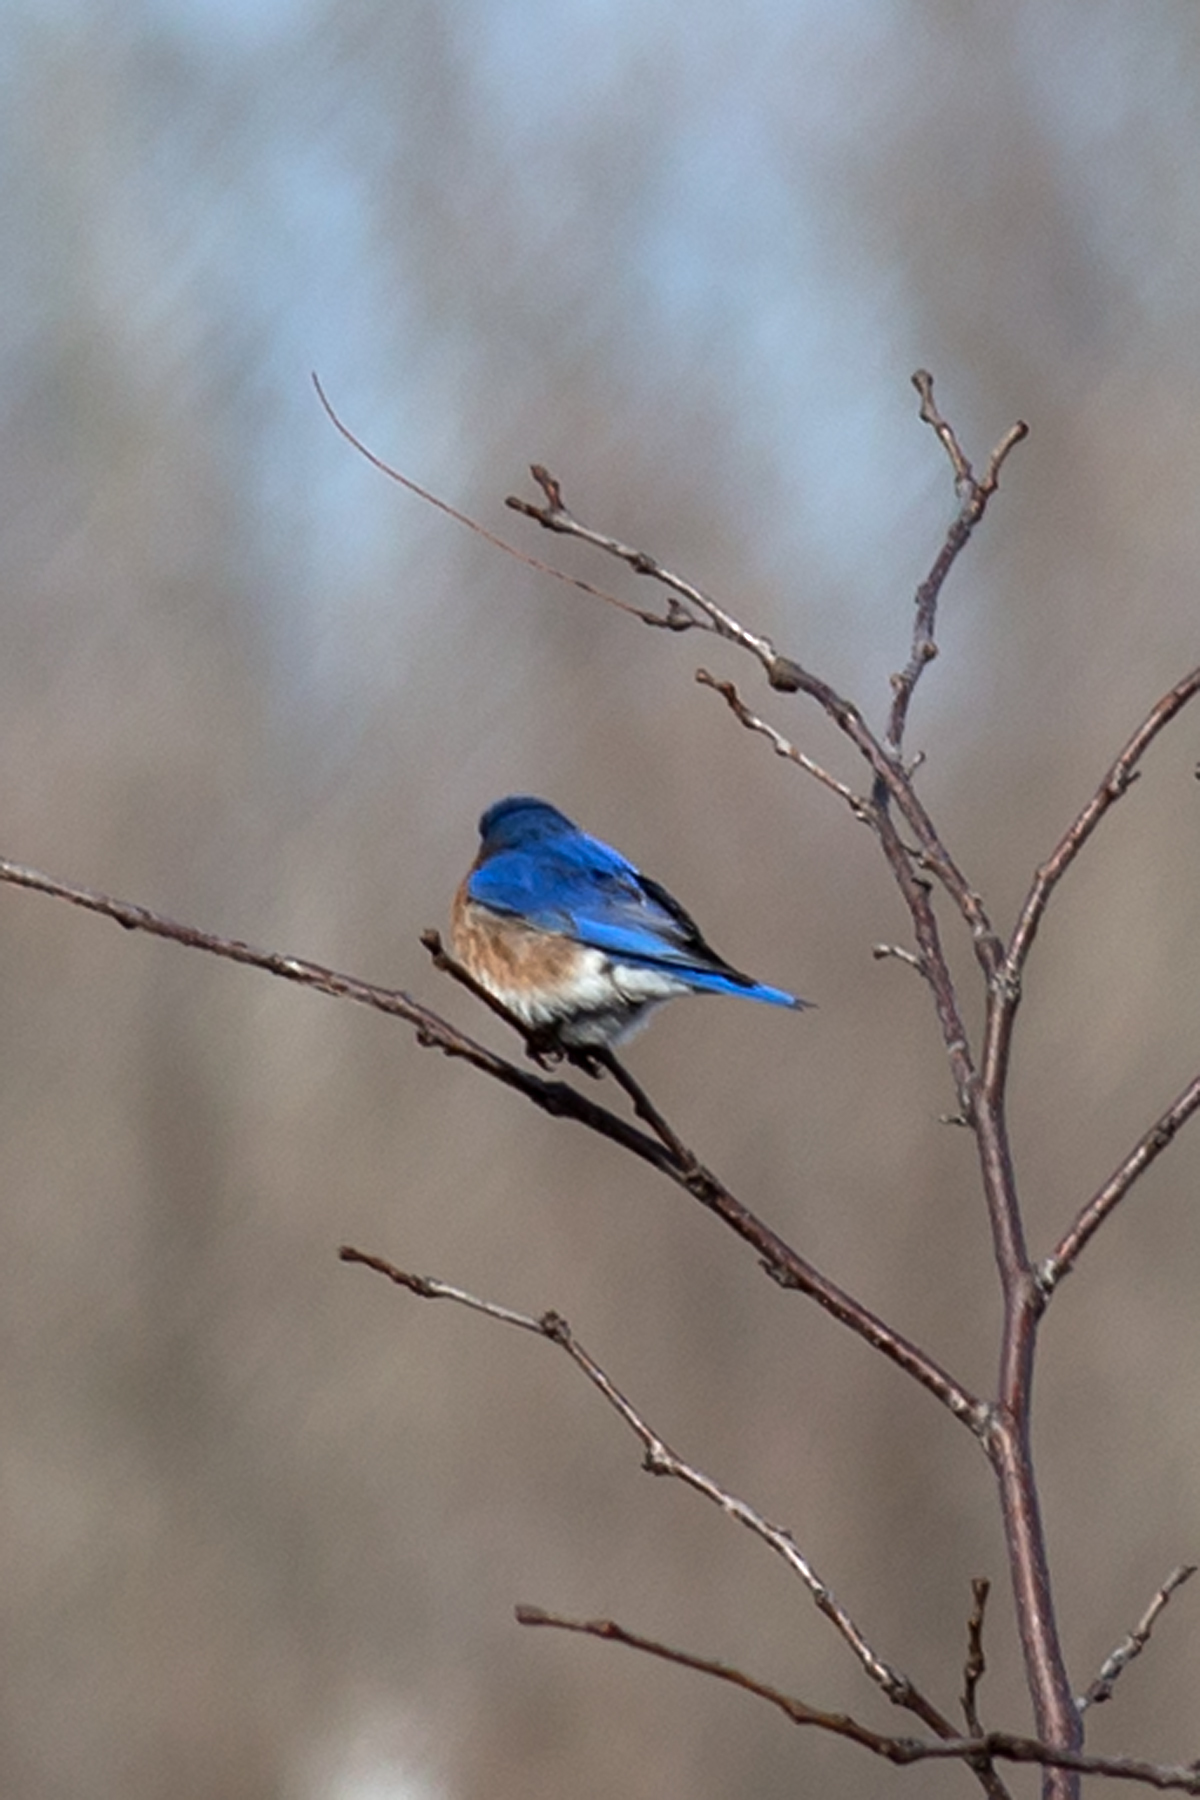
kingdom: Animalia
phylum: Chordata
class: Aves
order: Passeriformes
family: Turdidae
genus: Sialia
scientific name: Sialia sialis
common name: Eastern bluebird
